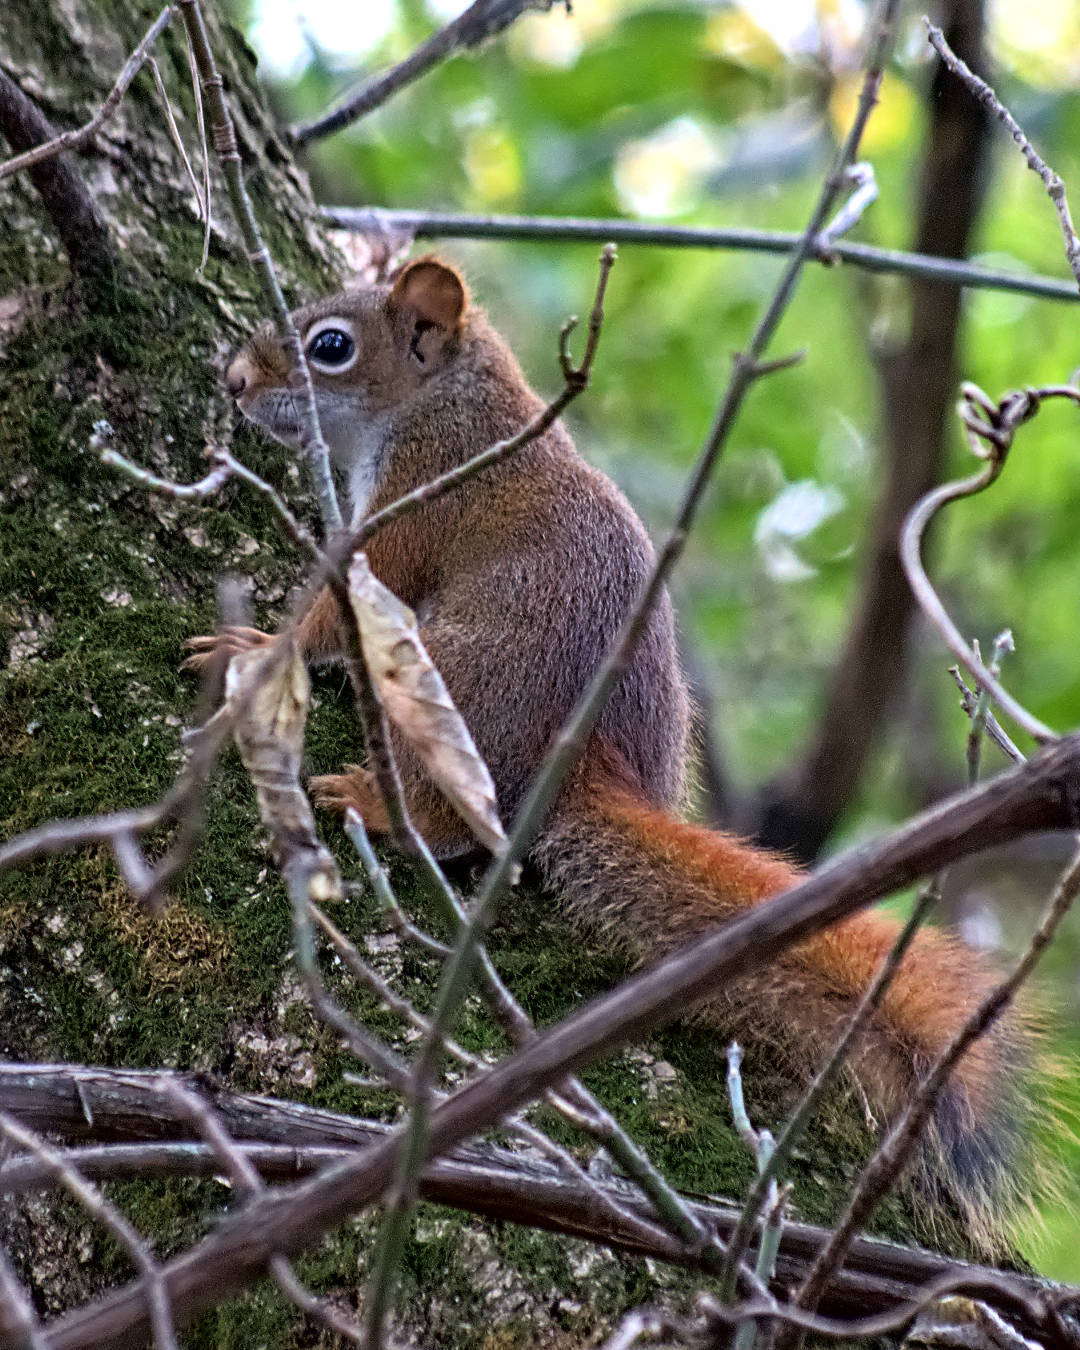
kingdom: Animalia
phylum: Chordata
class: Mammalia
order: Rodentia
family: Sciuridae
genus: Tamiasciurus
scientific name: Tamiasciurus hudsonicus
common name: Red squirrel
